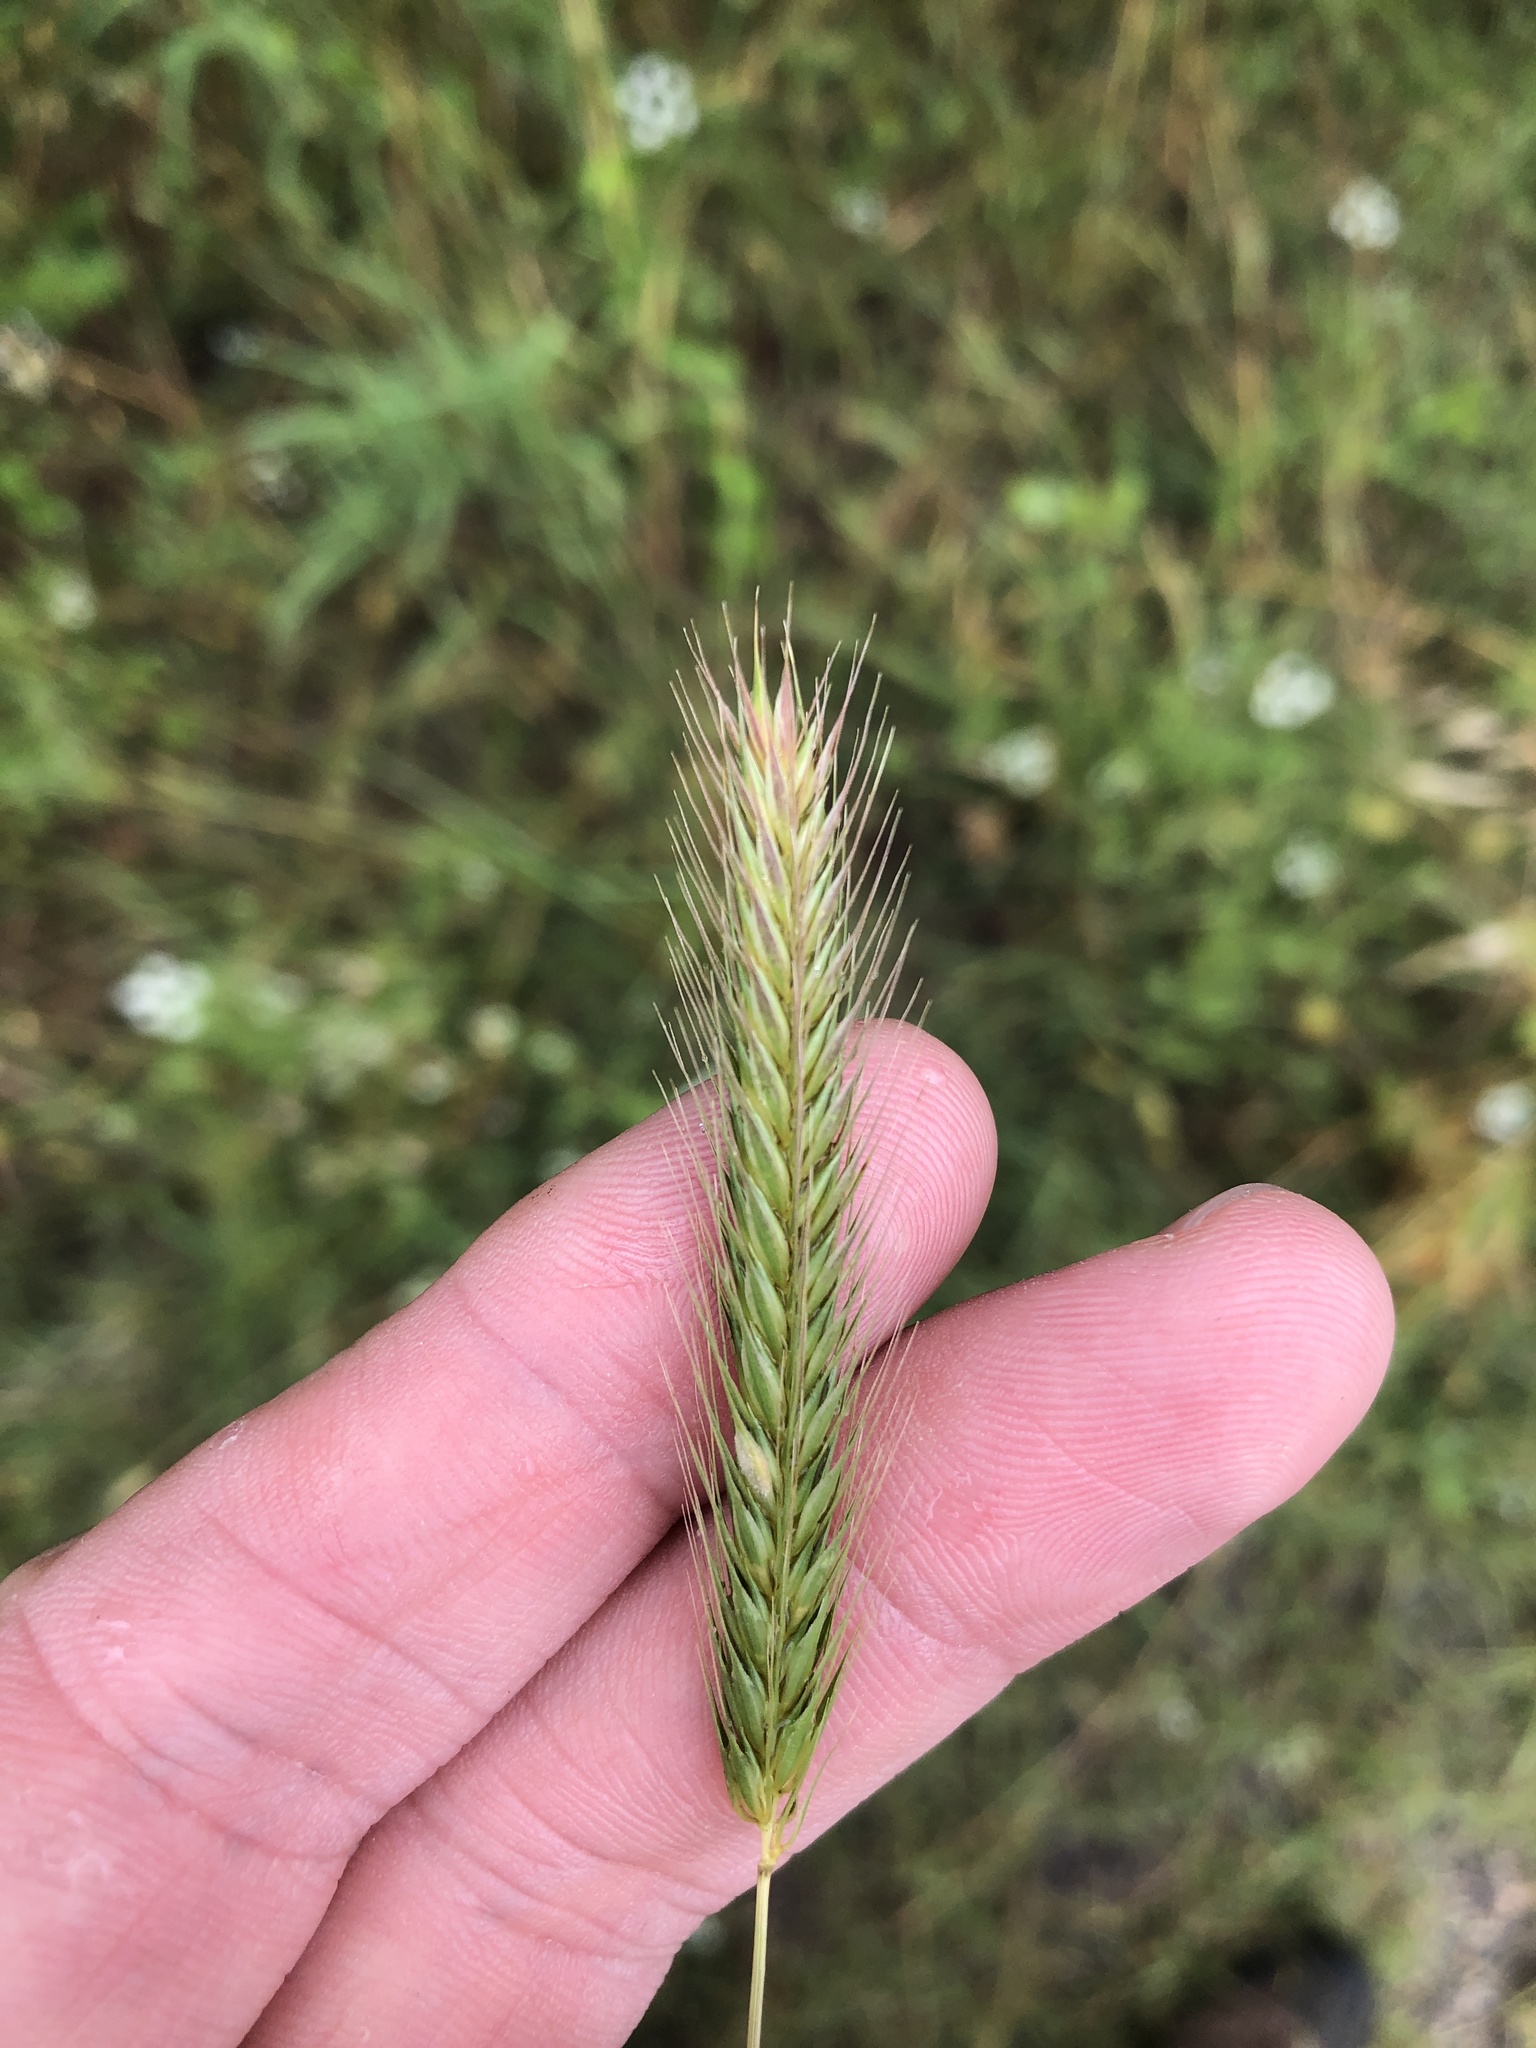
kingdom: Plantae
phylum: Tracheophyta
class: Liliopsida
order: Poales
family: Poaceae
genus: Hordeum
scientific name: Hordeum pusillum
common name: Little barley
